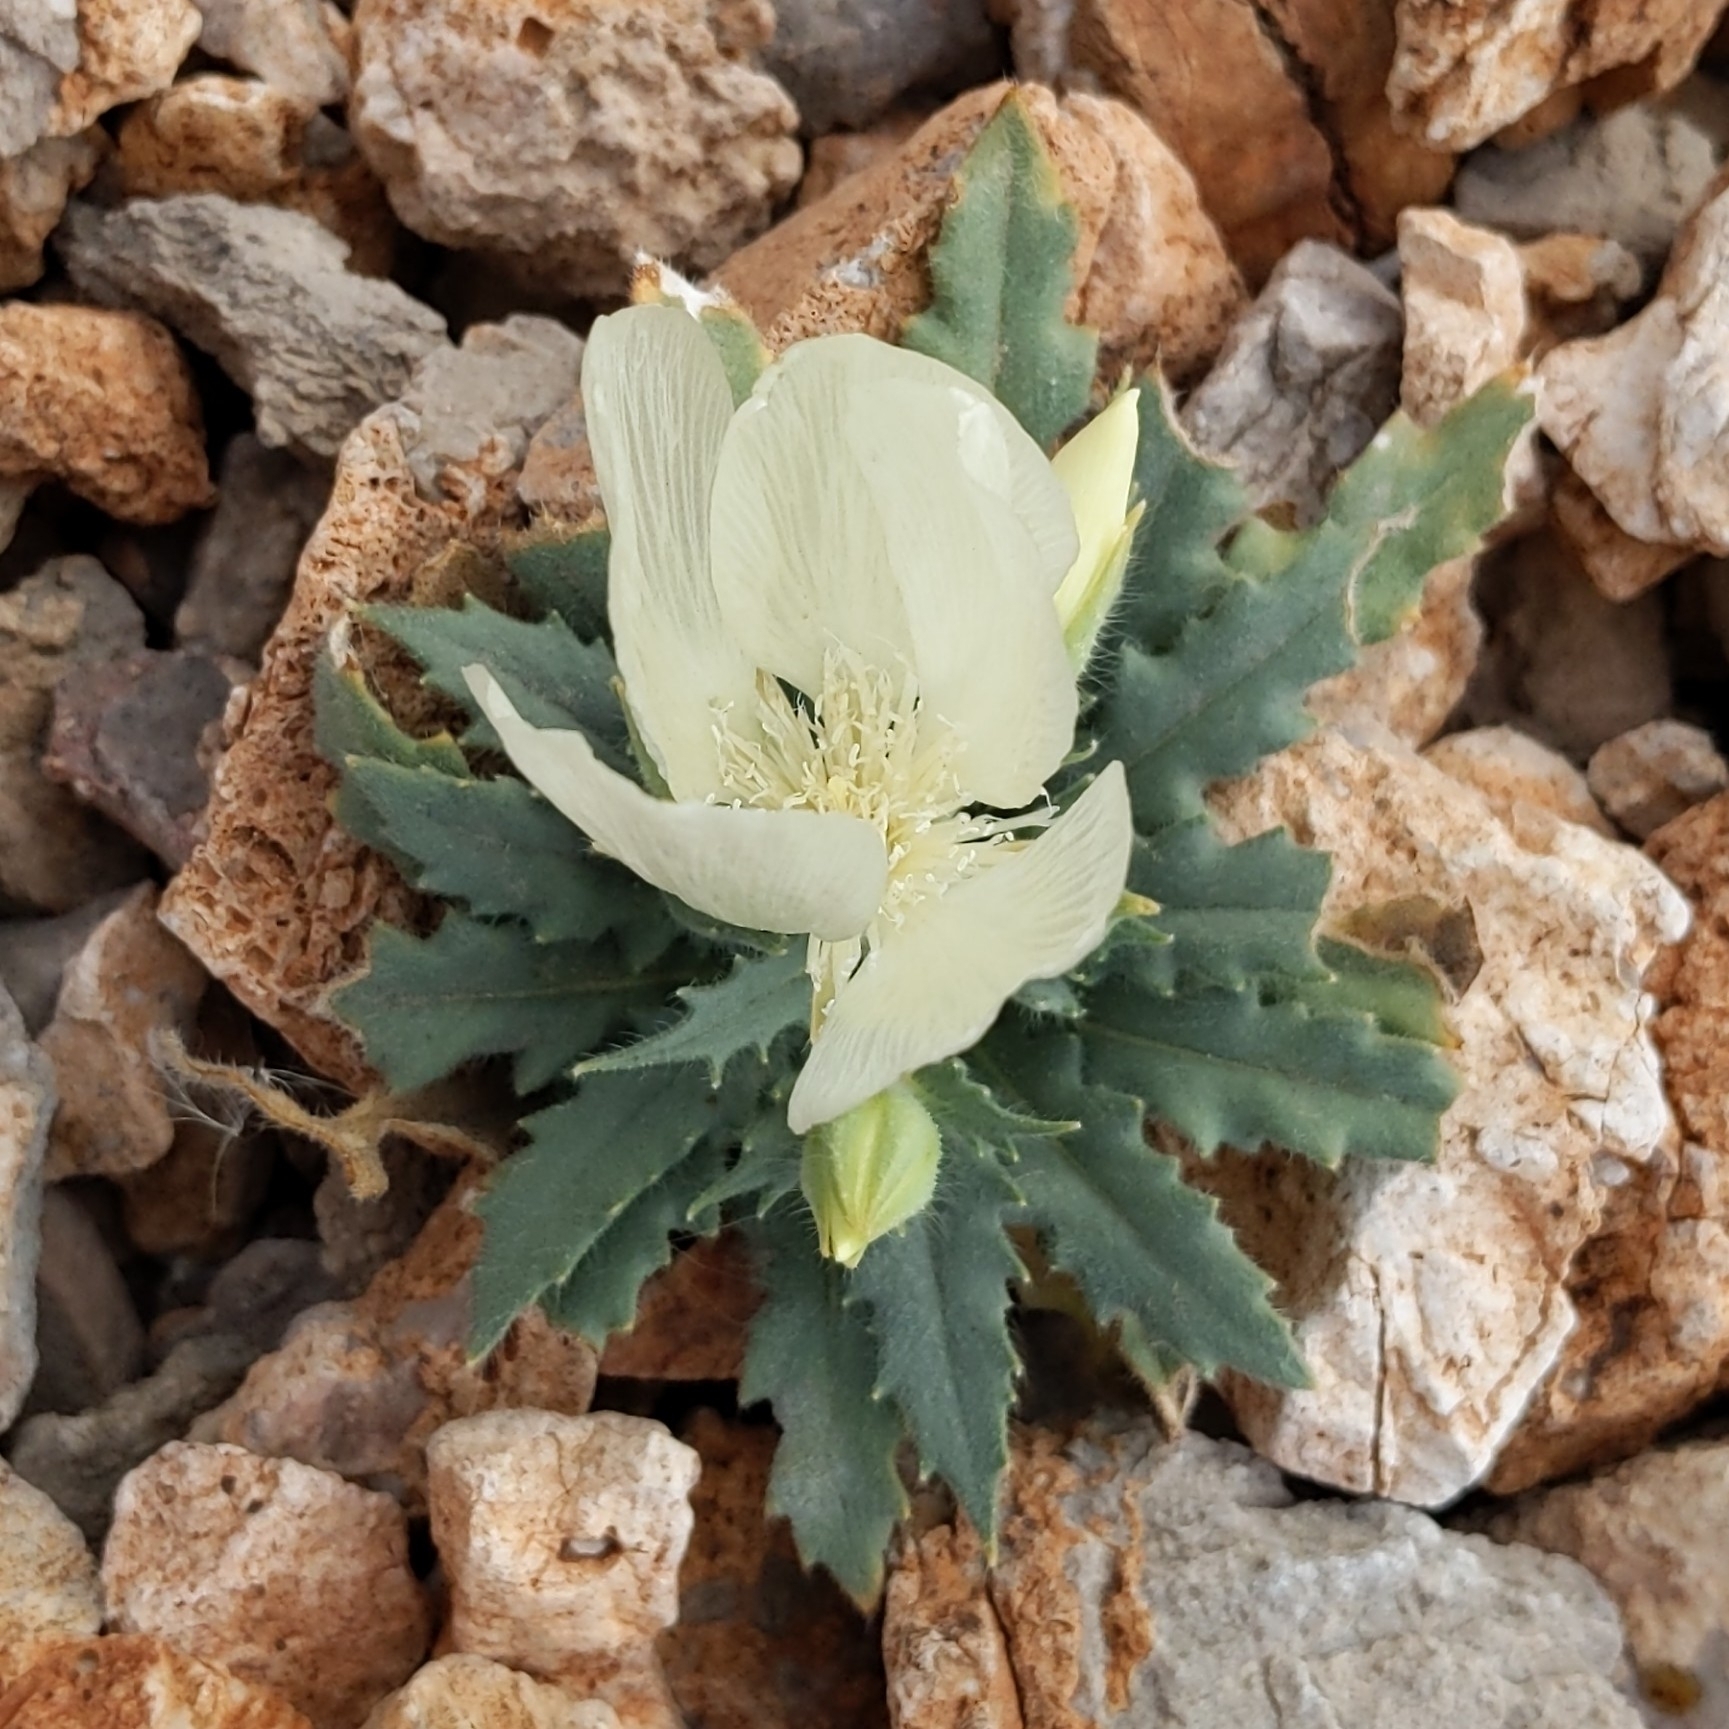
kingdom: Plantae
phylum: Tracheophyta
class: Magnoliopsida
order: Cornales
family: Loasaceae
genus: Mentzelia
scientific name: Mentzelia tricuspis
